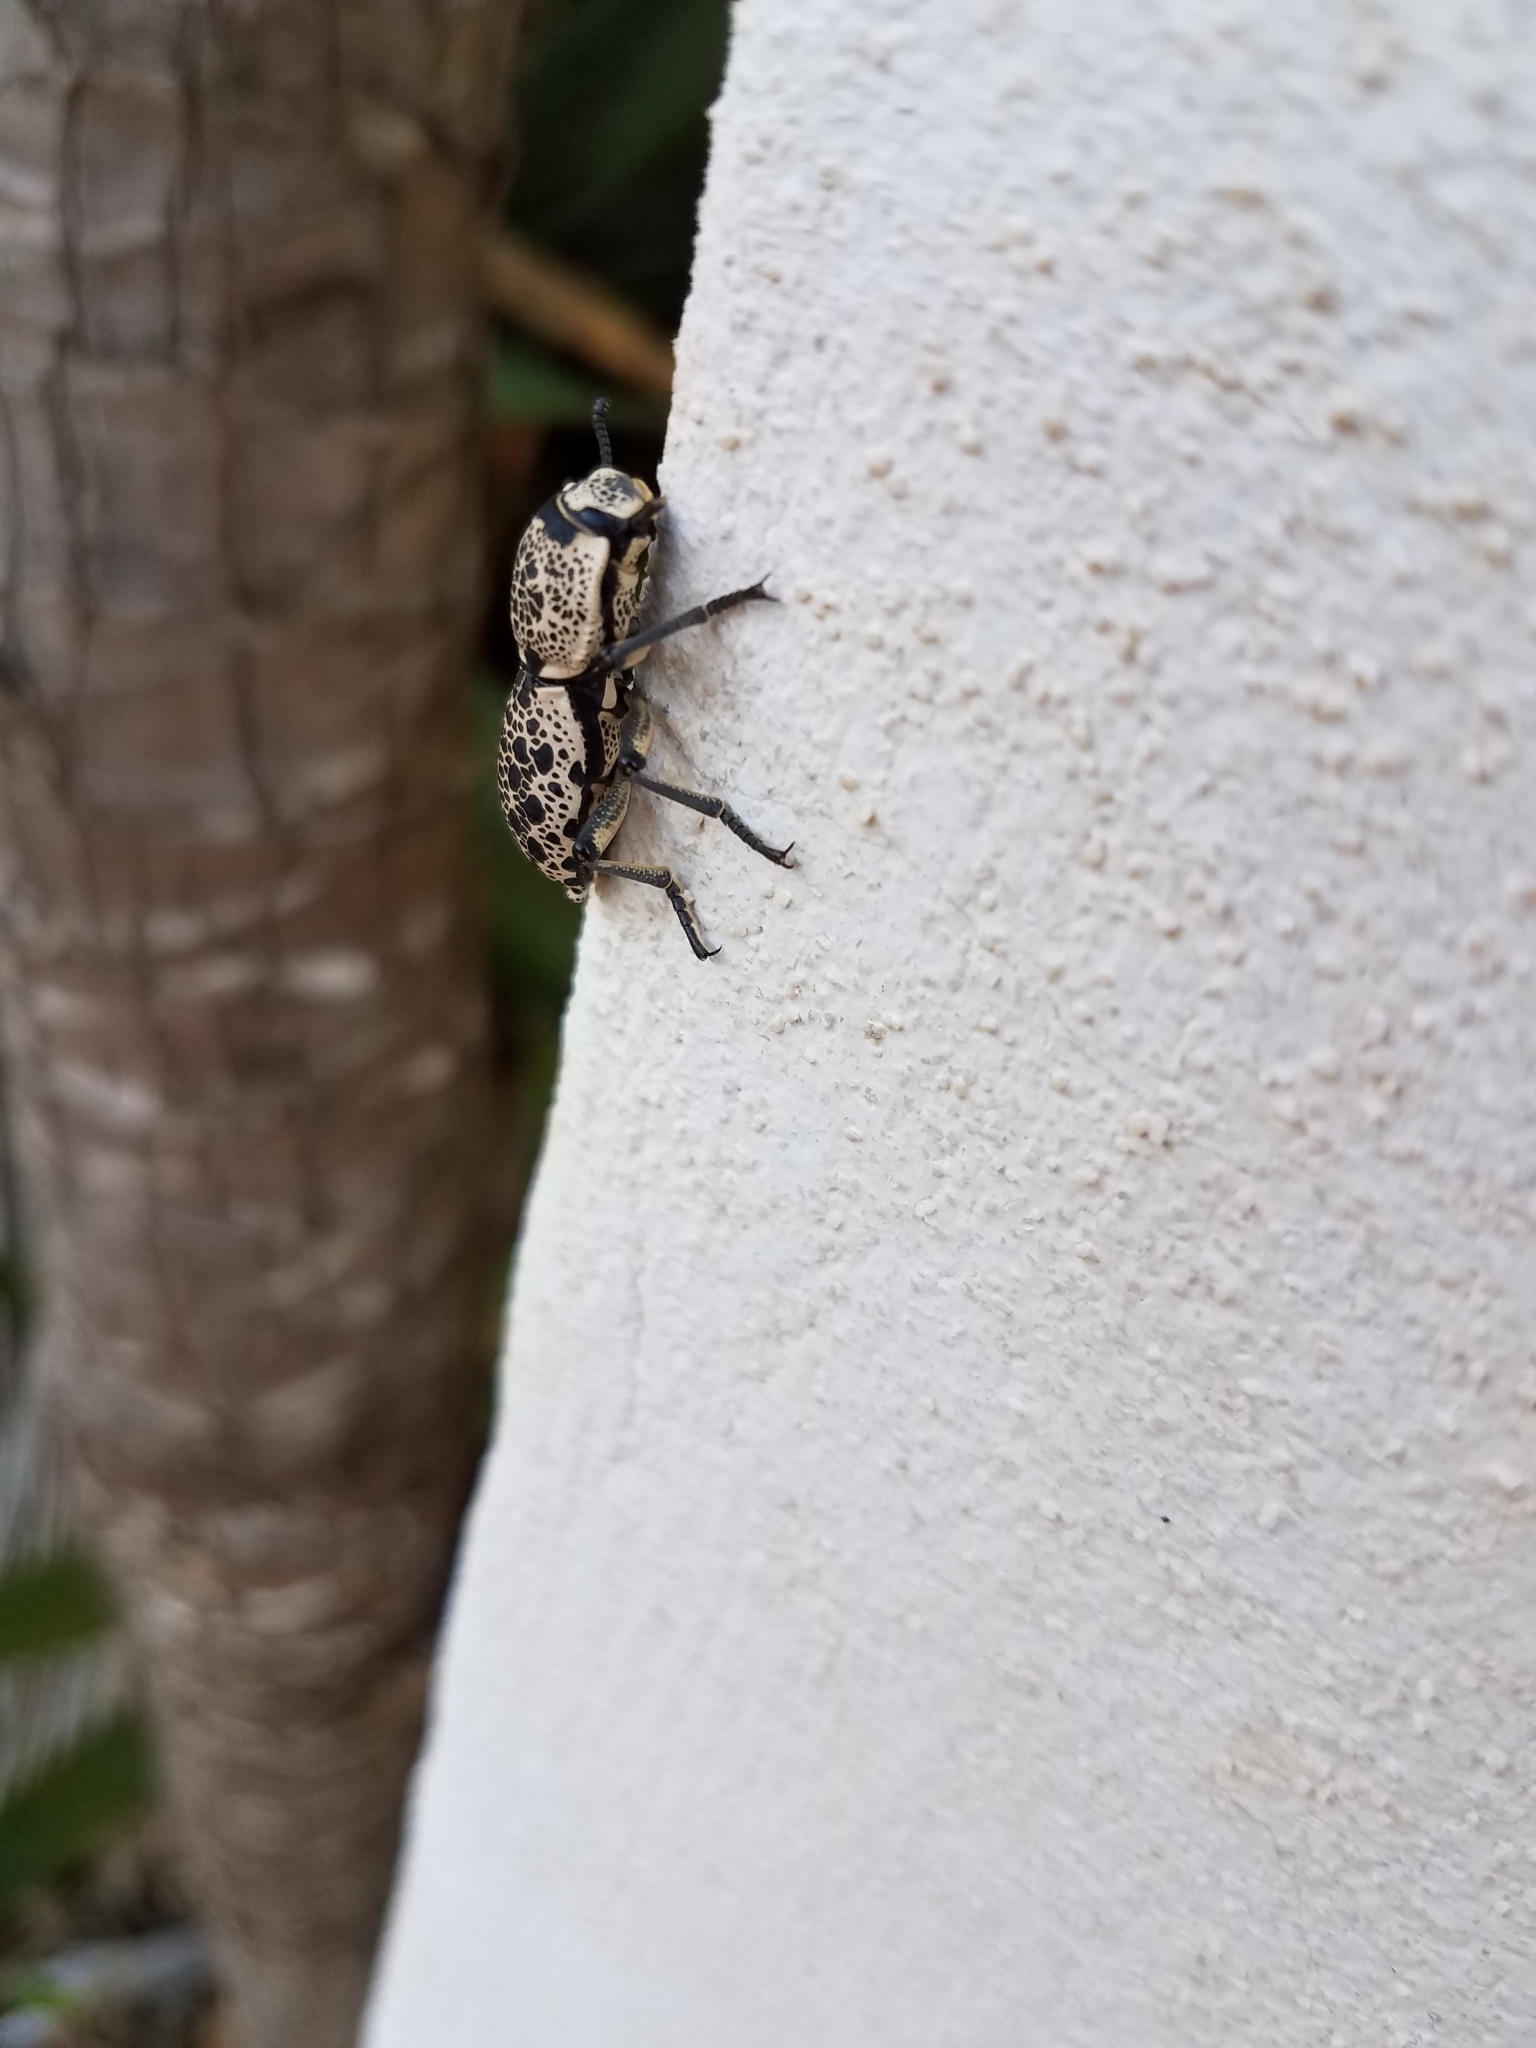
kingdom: Animalia
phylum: Arthropoda
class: Insecta
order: Coleoptera
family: Zopheridae
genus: Zopherus
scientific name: Zopherus
